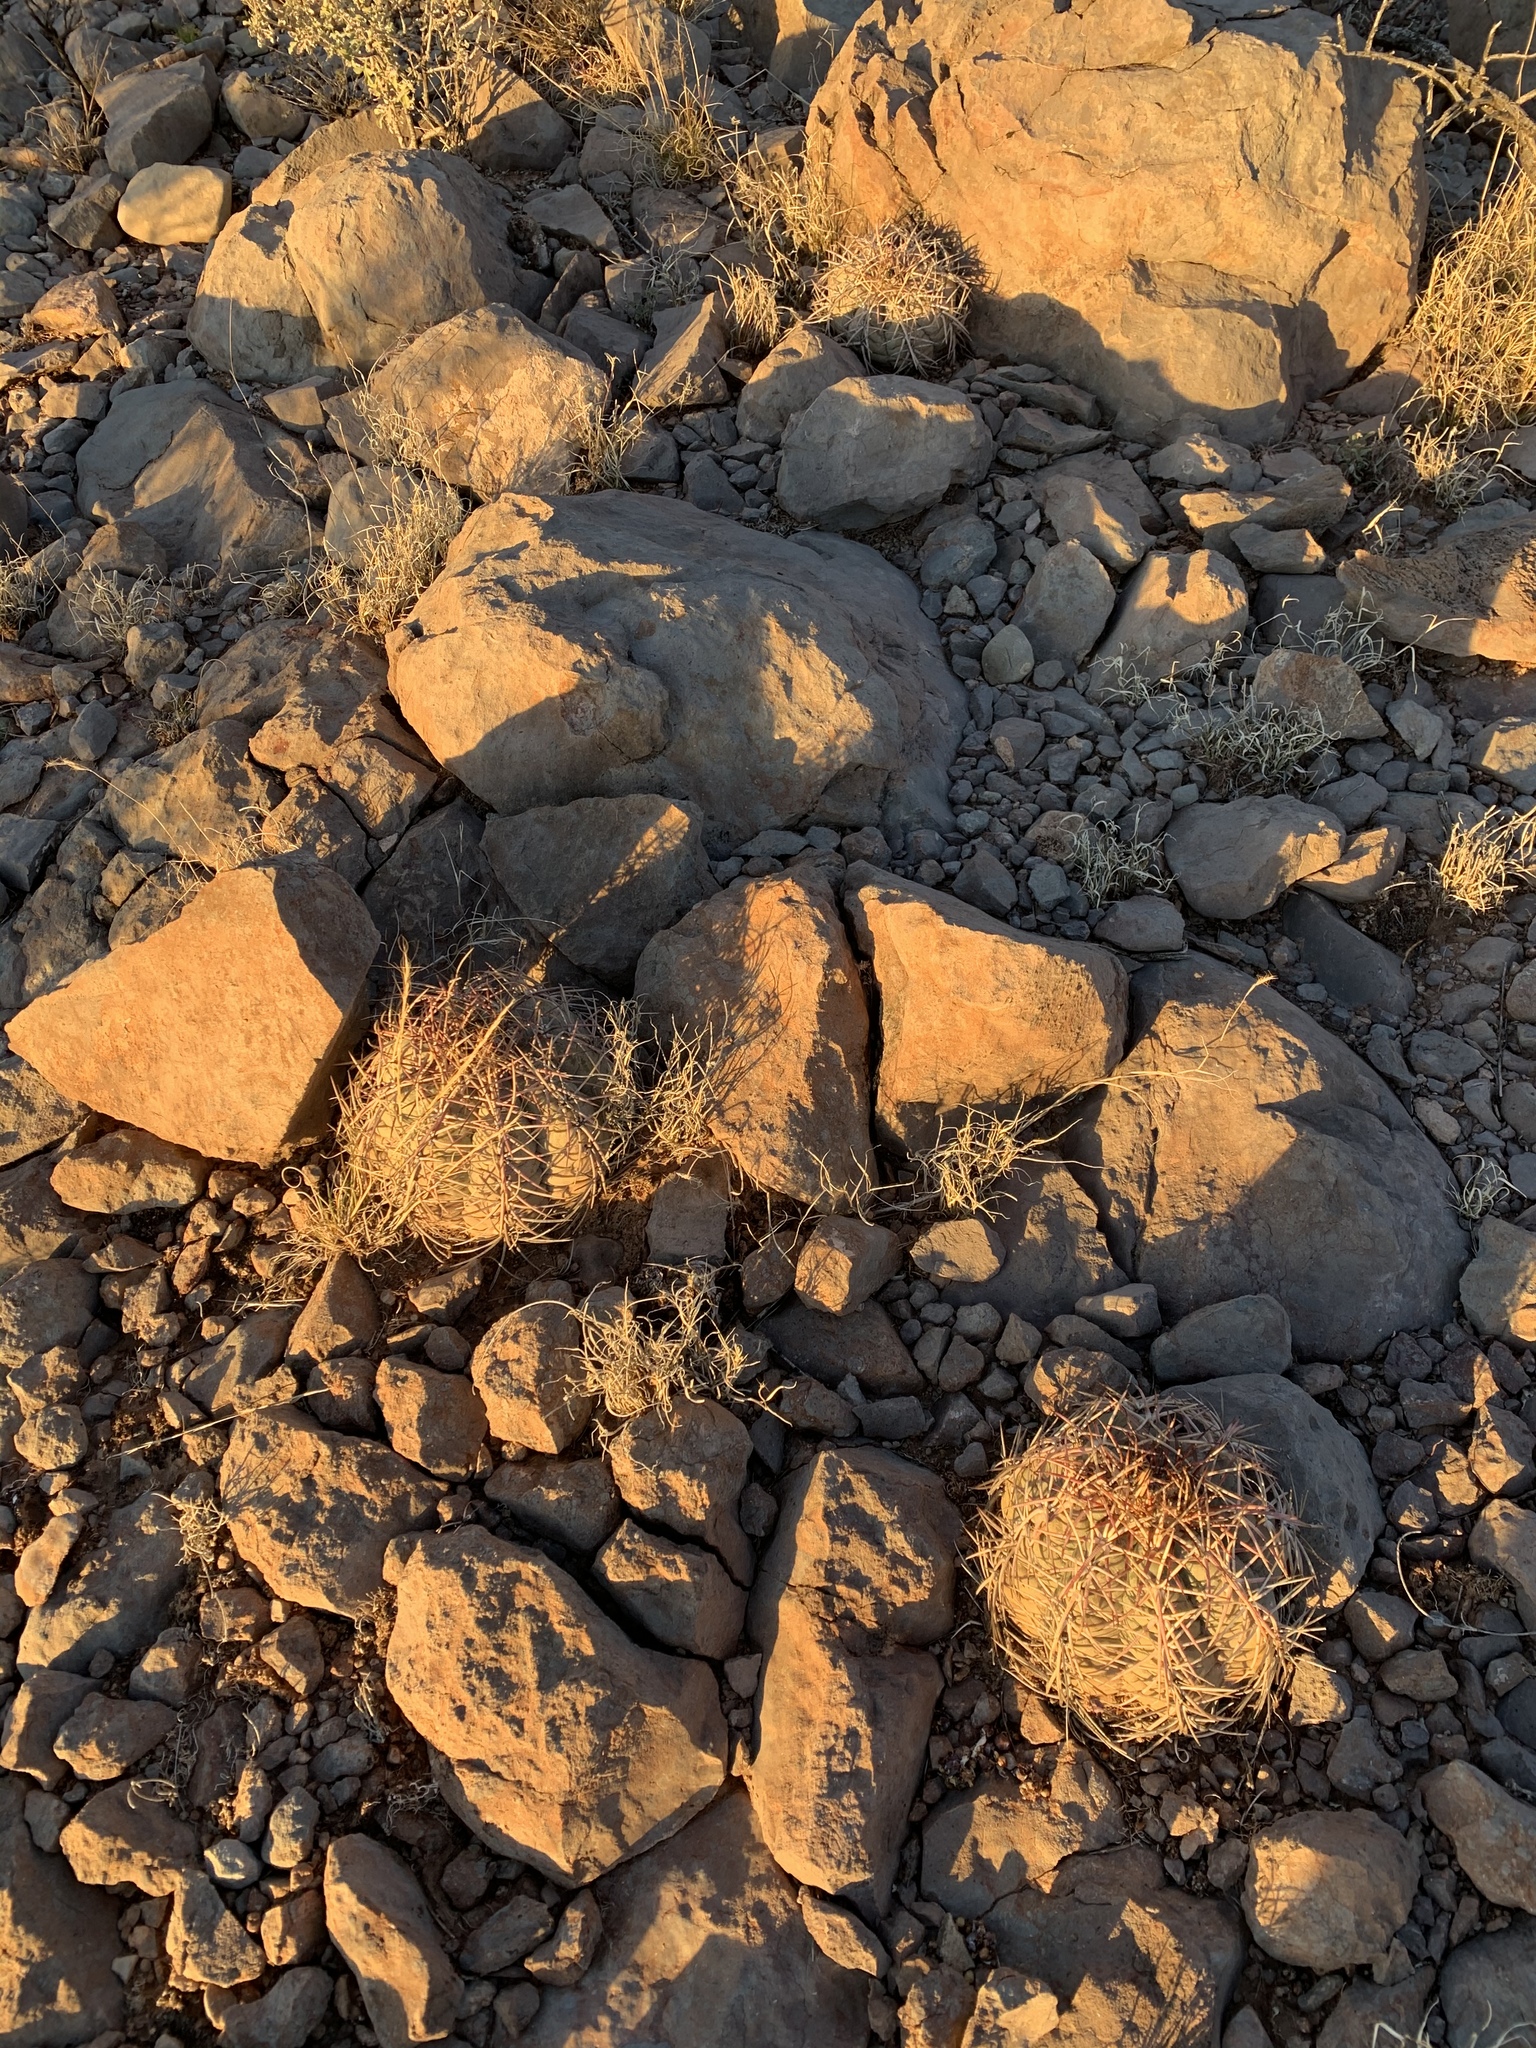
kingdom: Plantae
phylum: Tracheophyta
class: Magnoliopsida
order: Caryophyllales
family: Cactaceae
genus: Echinocactus
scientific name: Echinocactus horizonthalonius
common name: Devilshead
